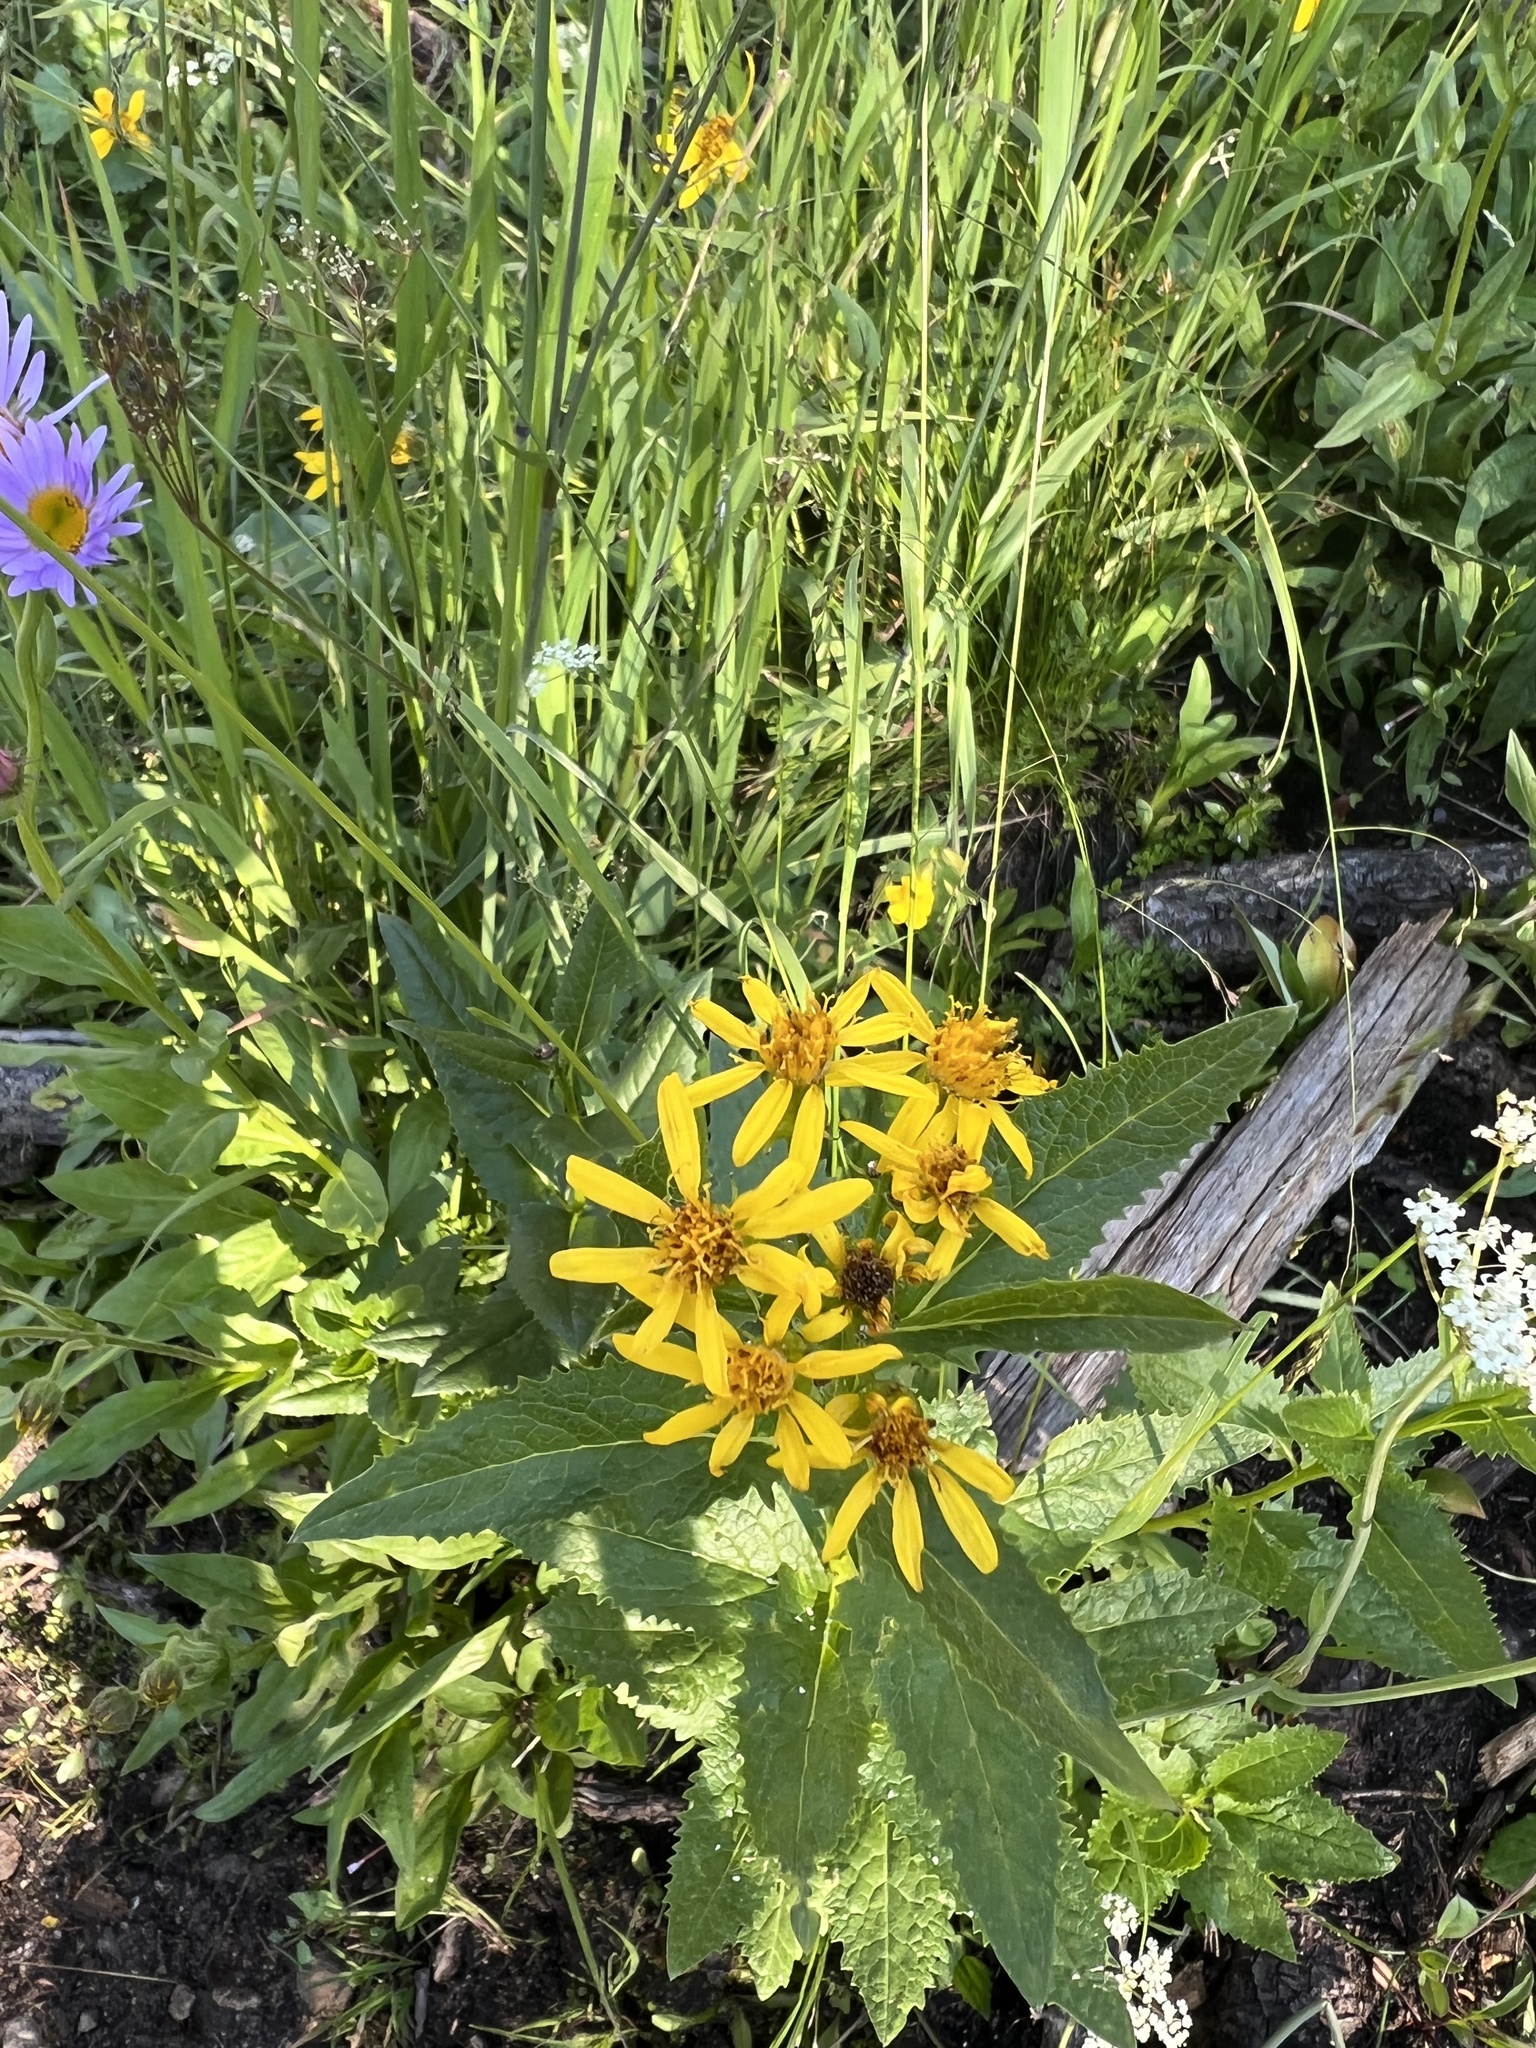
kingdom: Plantae
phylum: Tracheophyta
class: Magnoliopsida
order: Asterales
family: Asteraceae
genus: Senecio
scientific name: Senecio triangularis
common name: Arrowleaf butterweed
